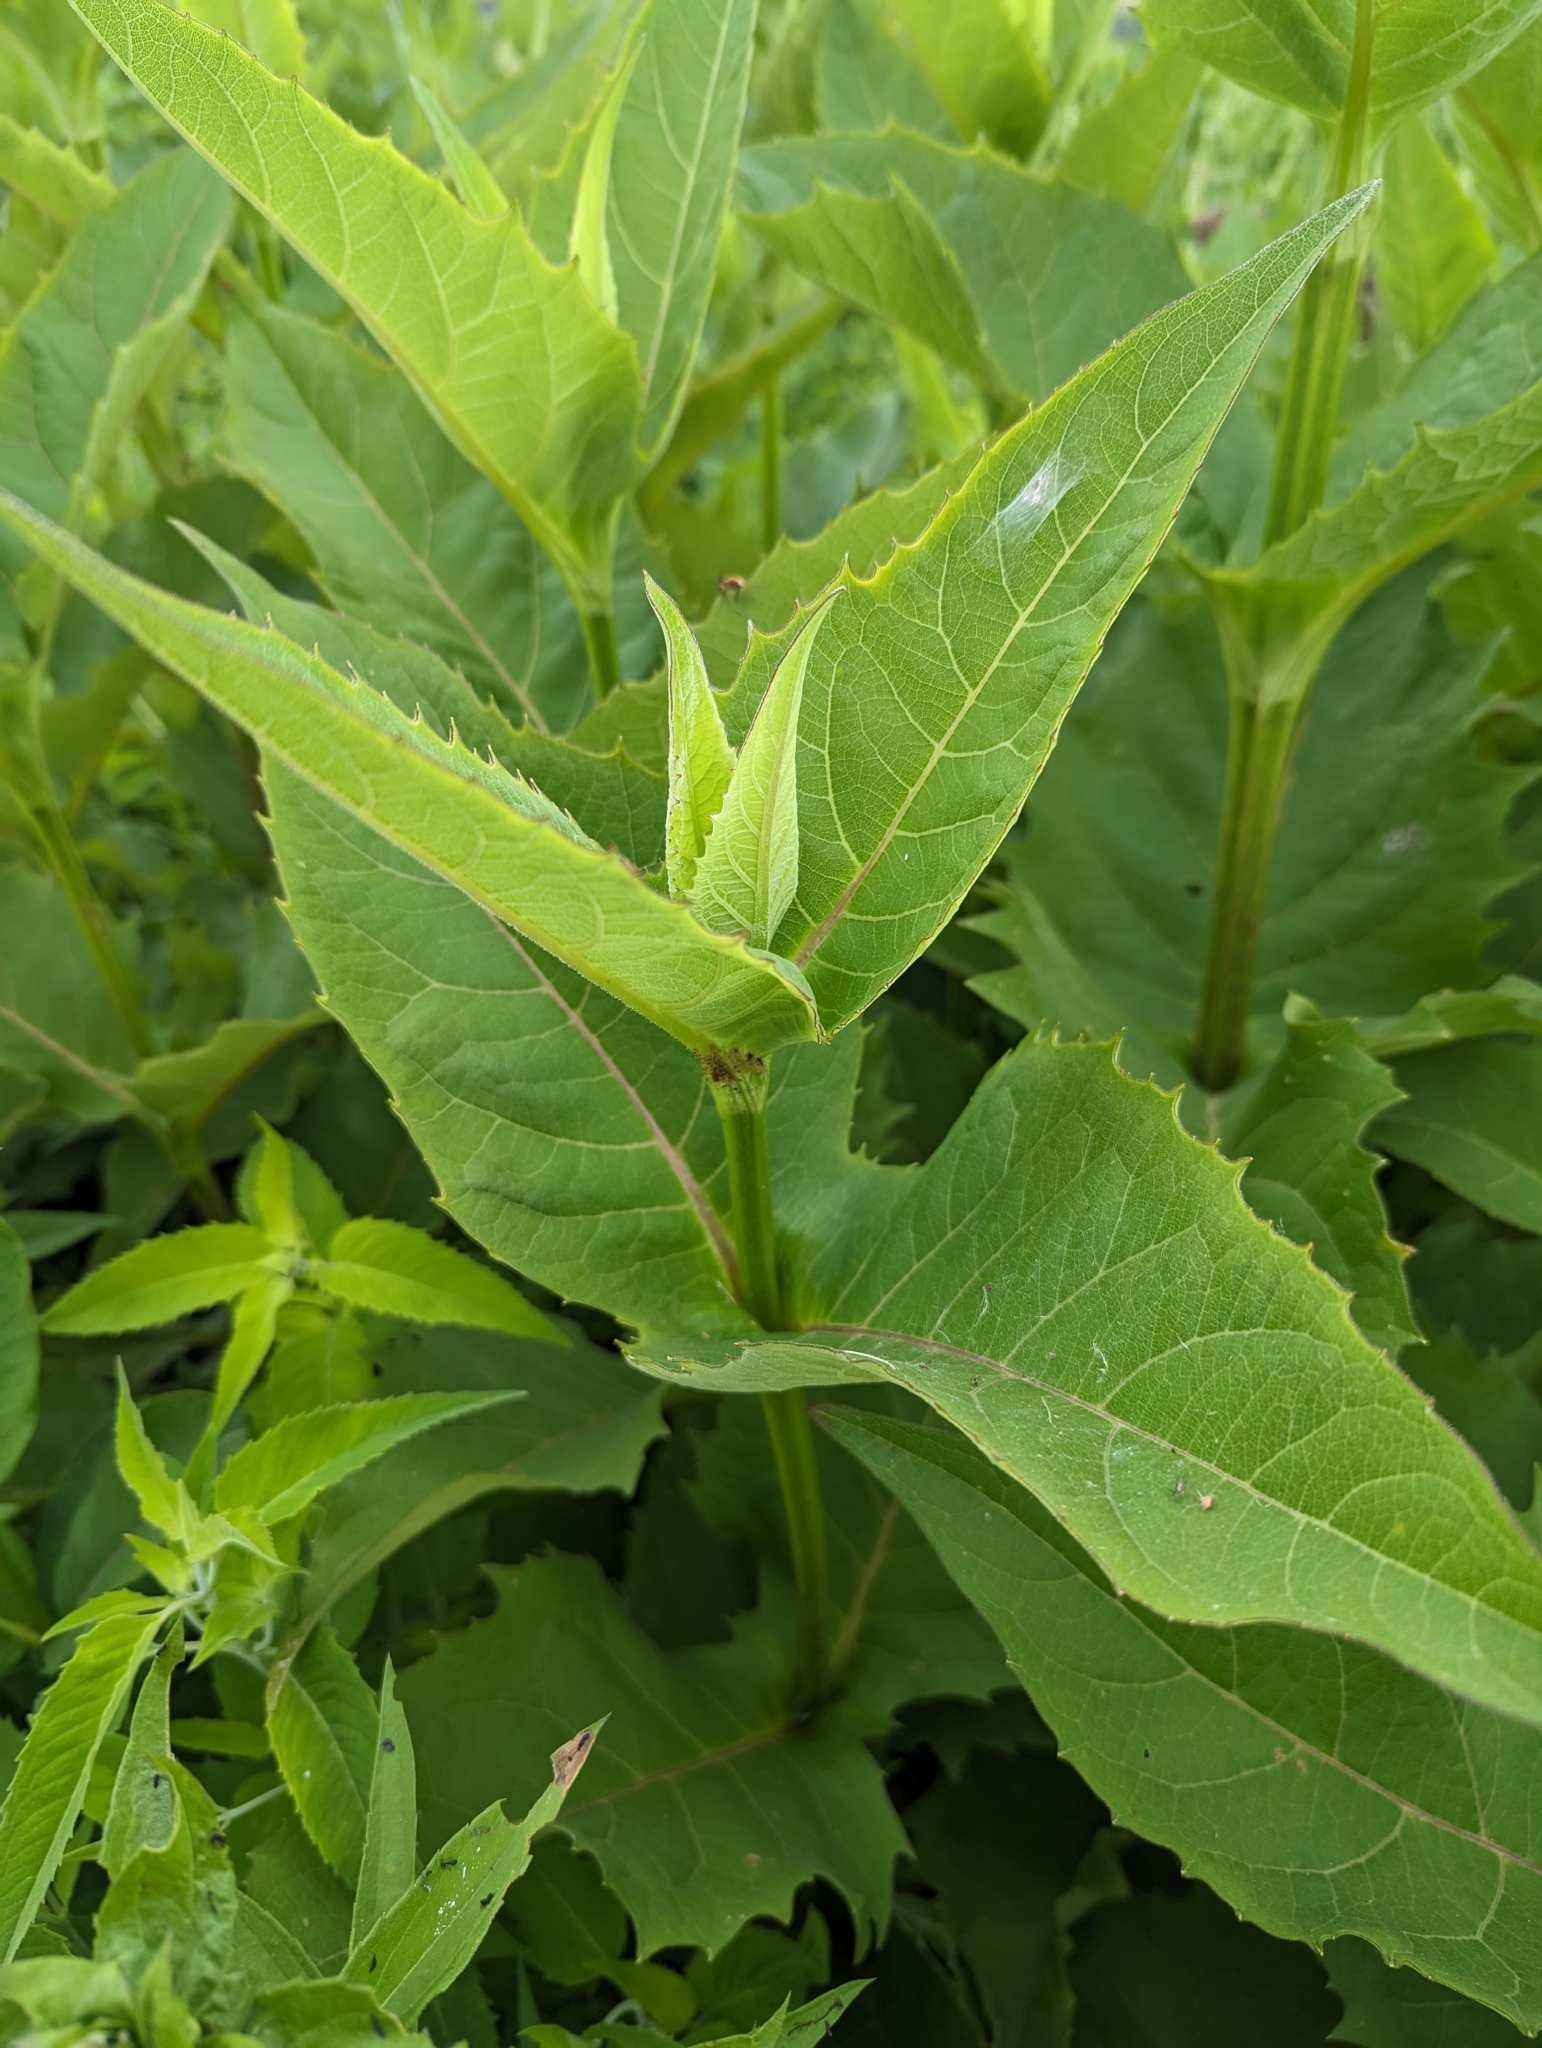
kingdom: Plantae
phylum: Tracheophyta
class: Magnoliopsida
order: Asterales
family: Asteraceae
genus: Silphium
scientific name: Silphium perfoliatum
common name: Cup-plant
